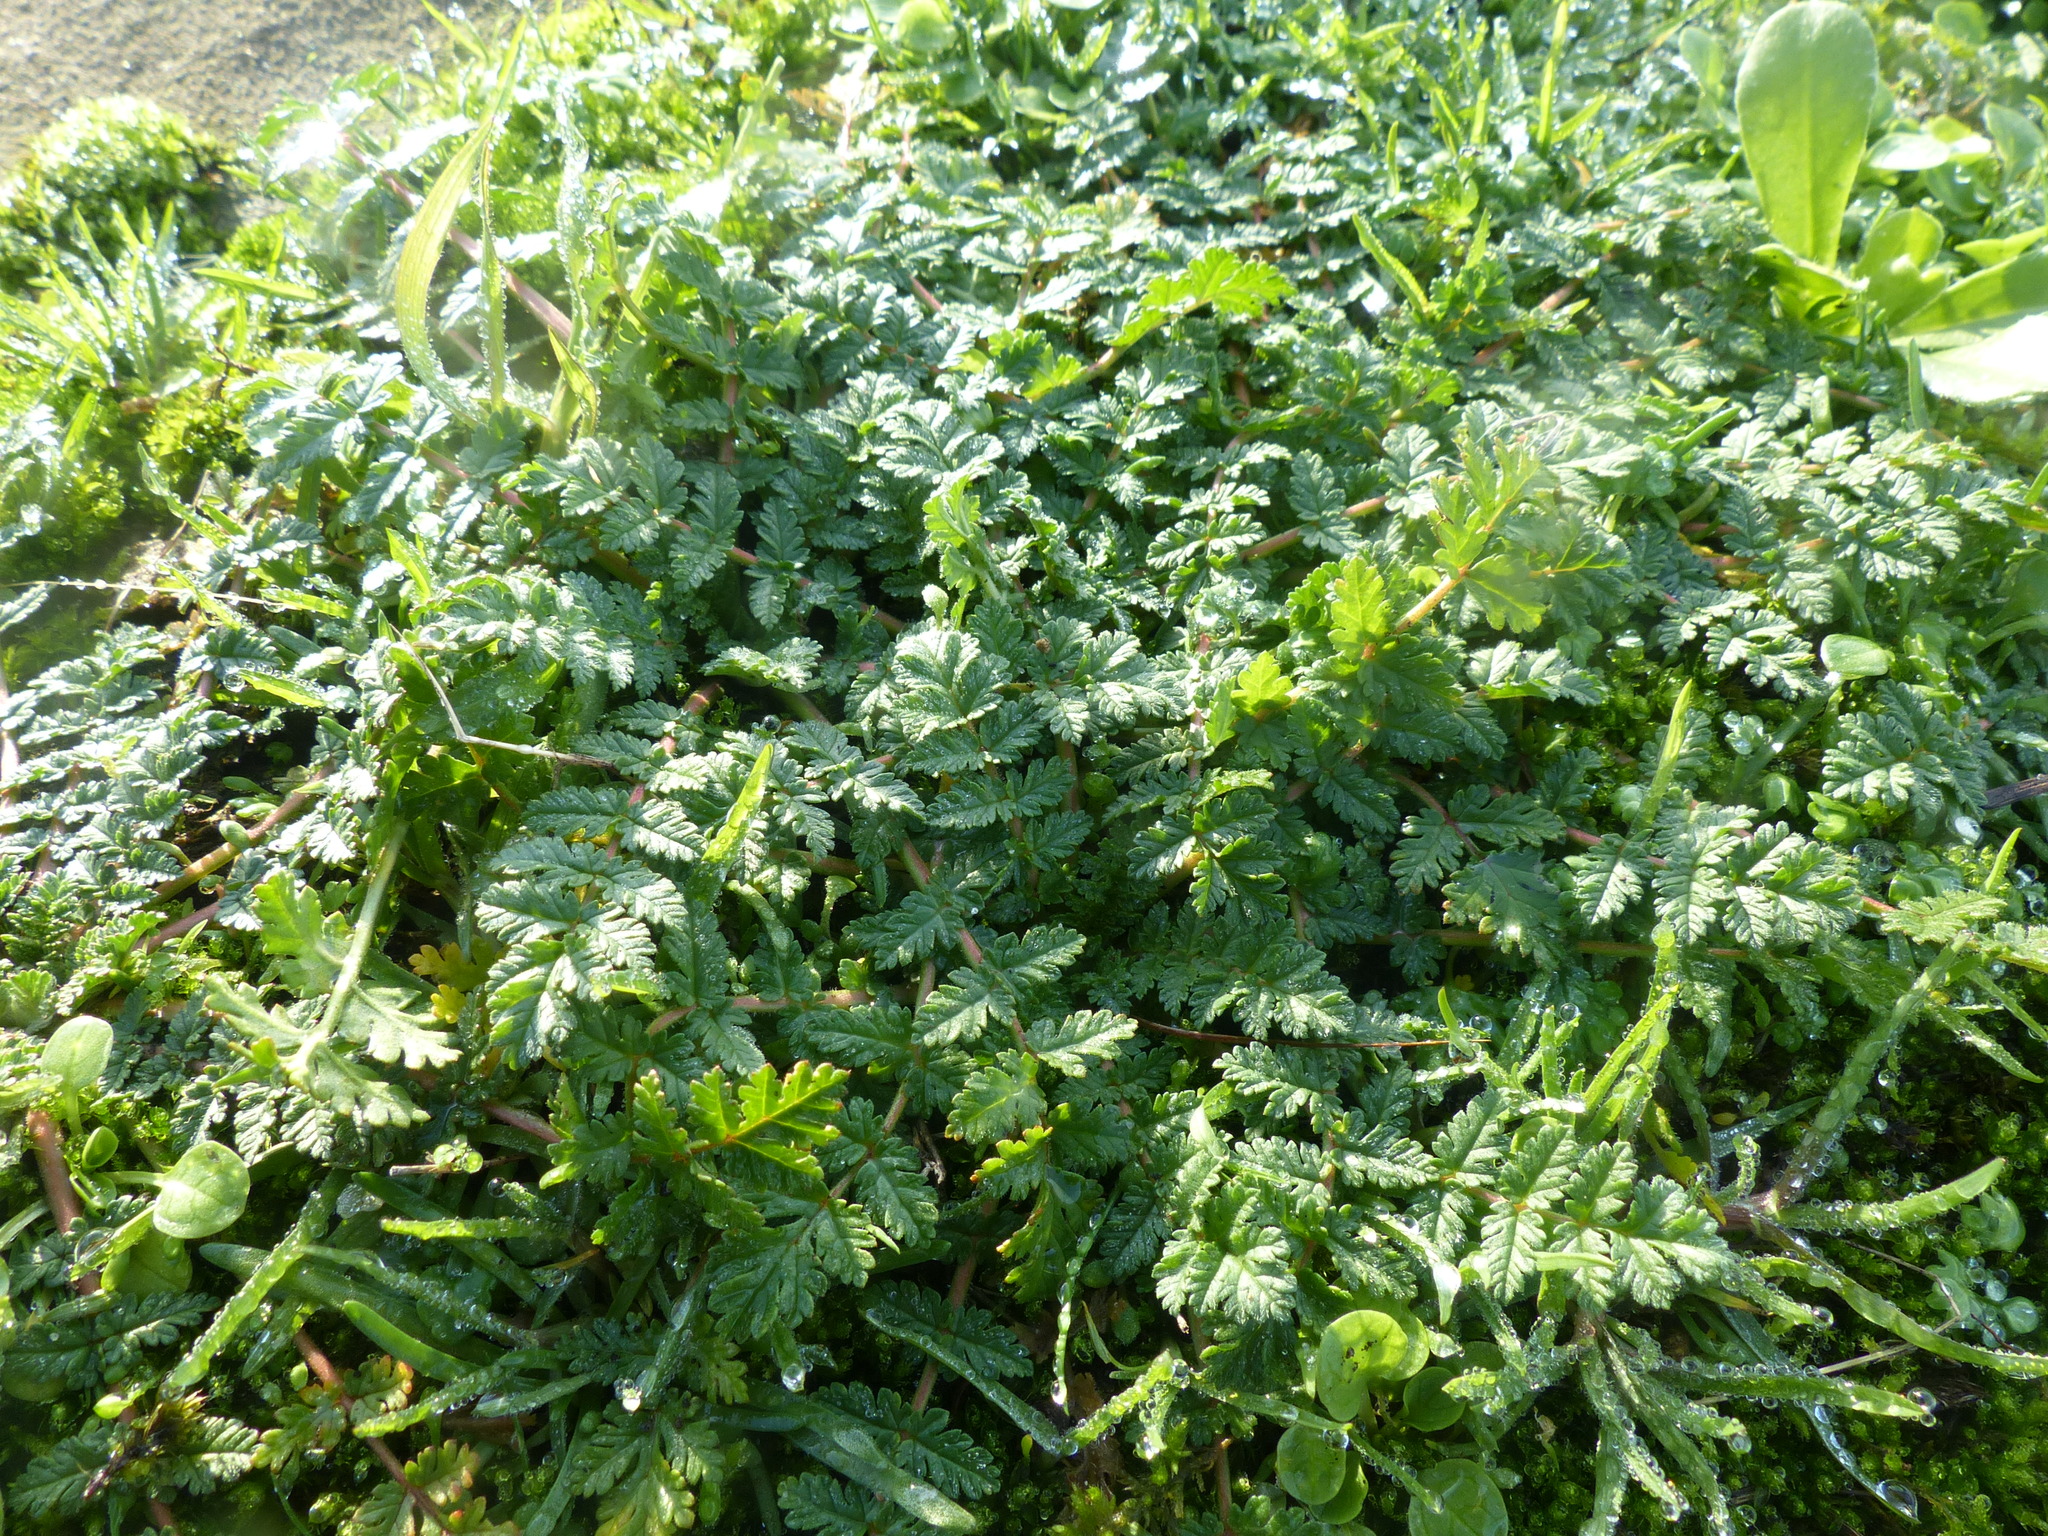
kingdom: Plantae
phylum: Tracheophyta
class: Magnoliopsida
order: Geraniales
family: Geraniaceae
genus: Erodium
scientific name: Erodium cicutarium
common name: Common stork's-bill
